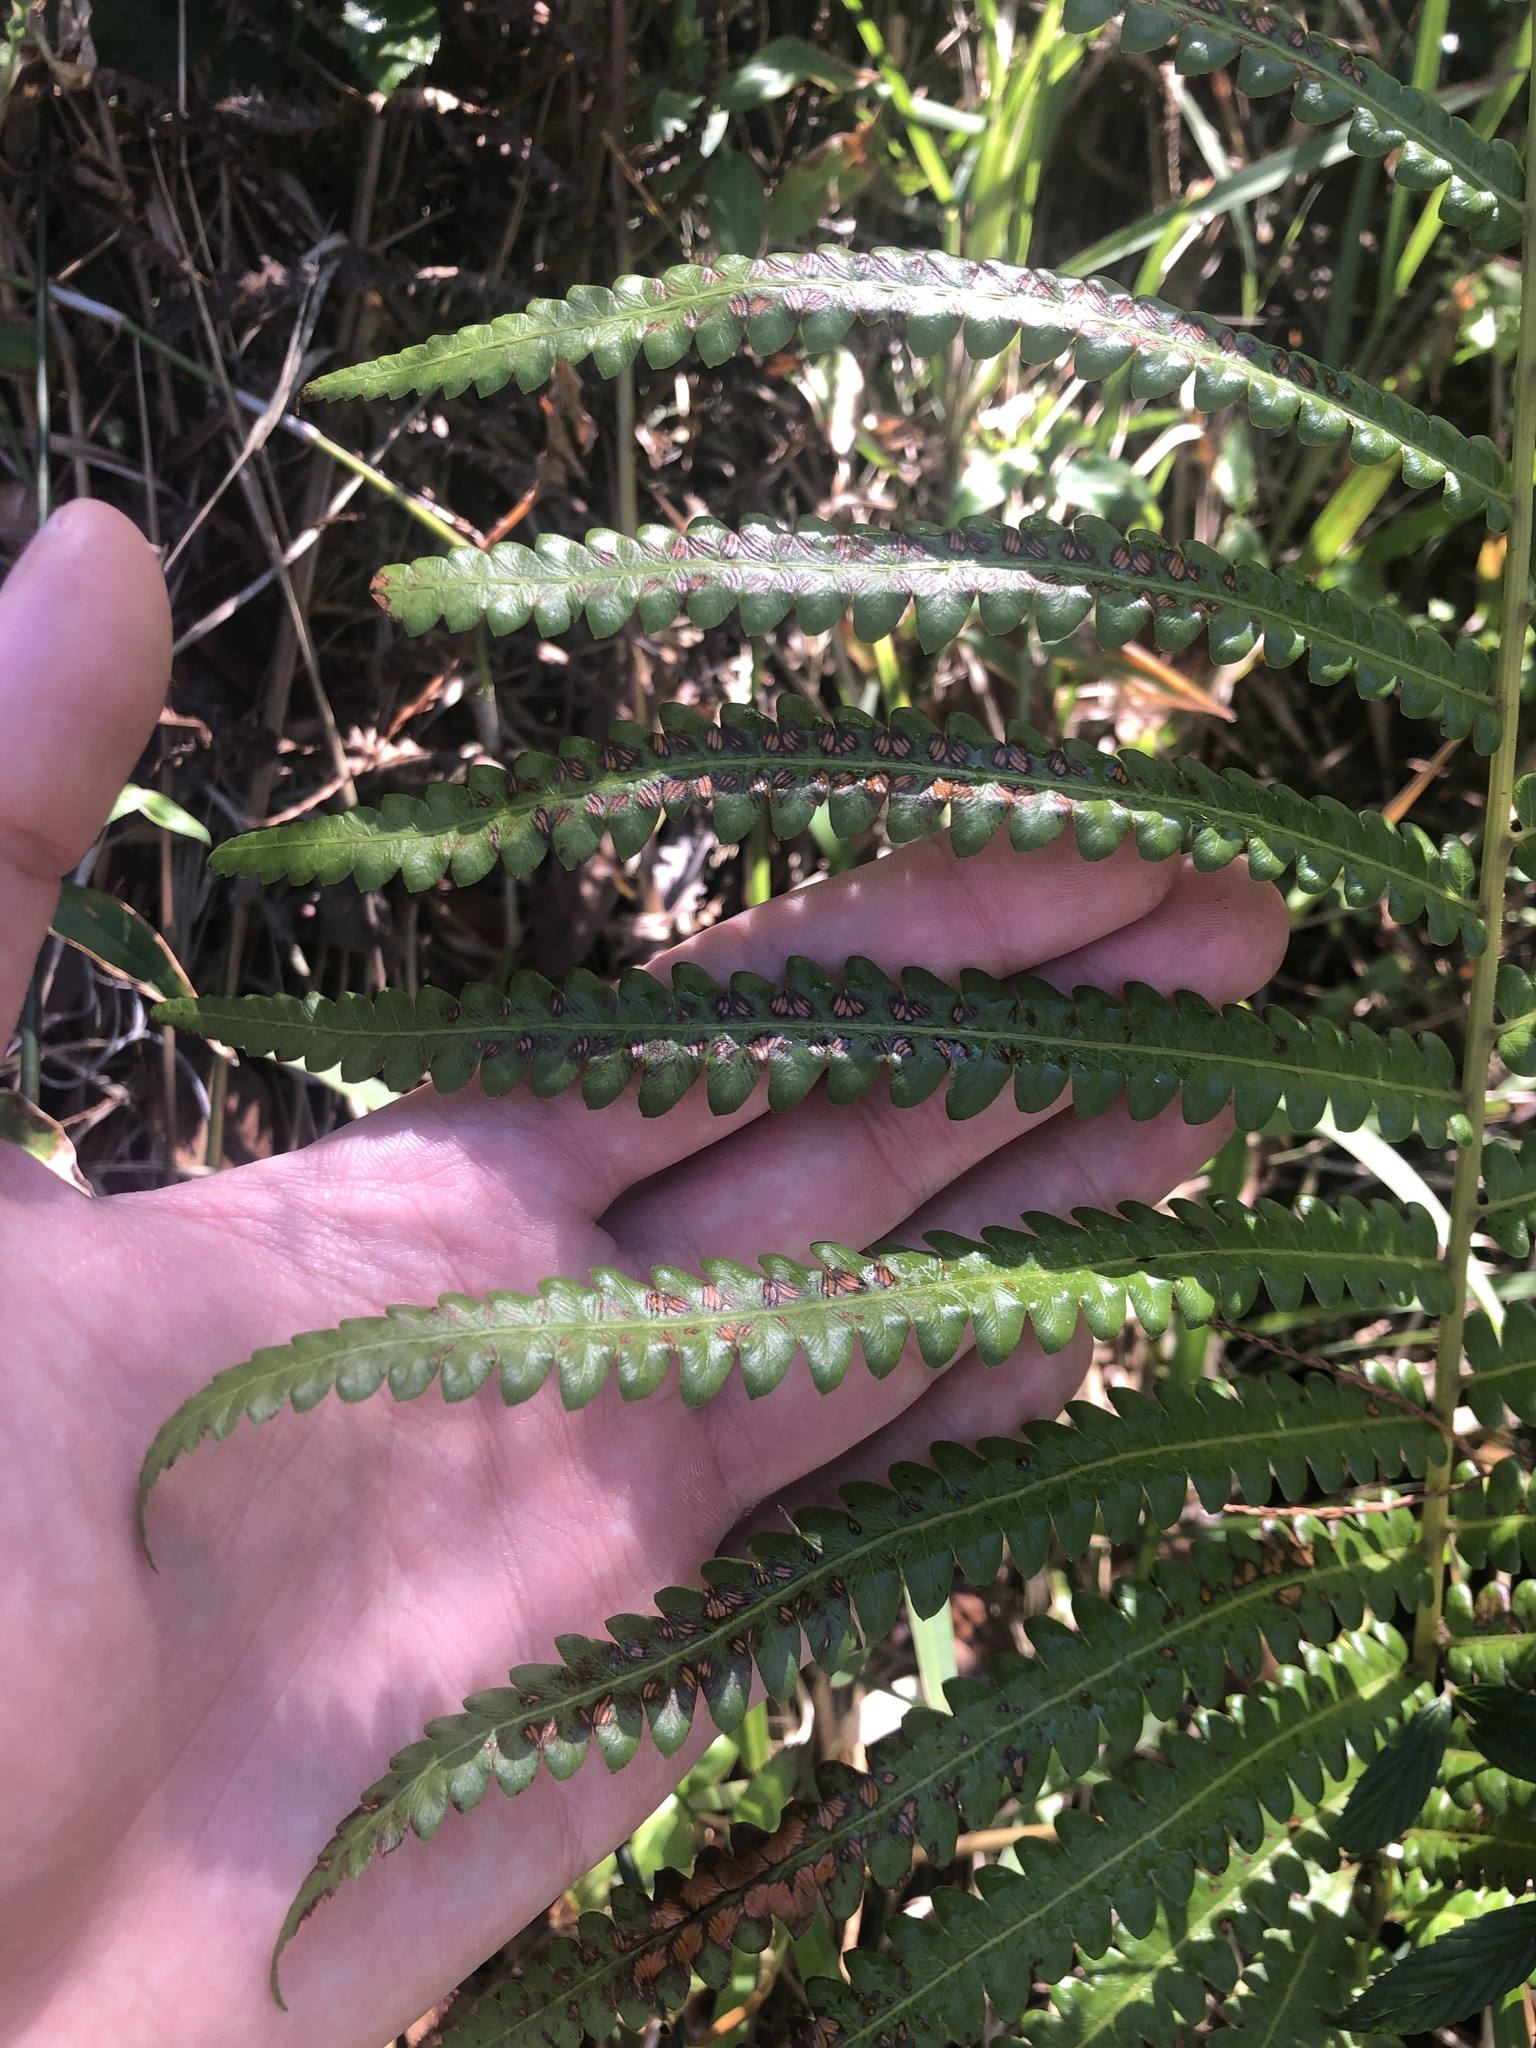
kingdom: Plantae
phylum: Tracheophyta
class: Polypodiopsida
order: Polypodiales
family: Thelypteridaceae
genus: Cyclosorus
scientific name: Cyclosorus interruptus
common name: Neke fern
